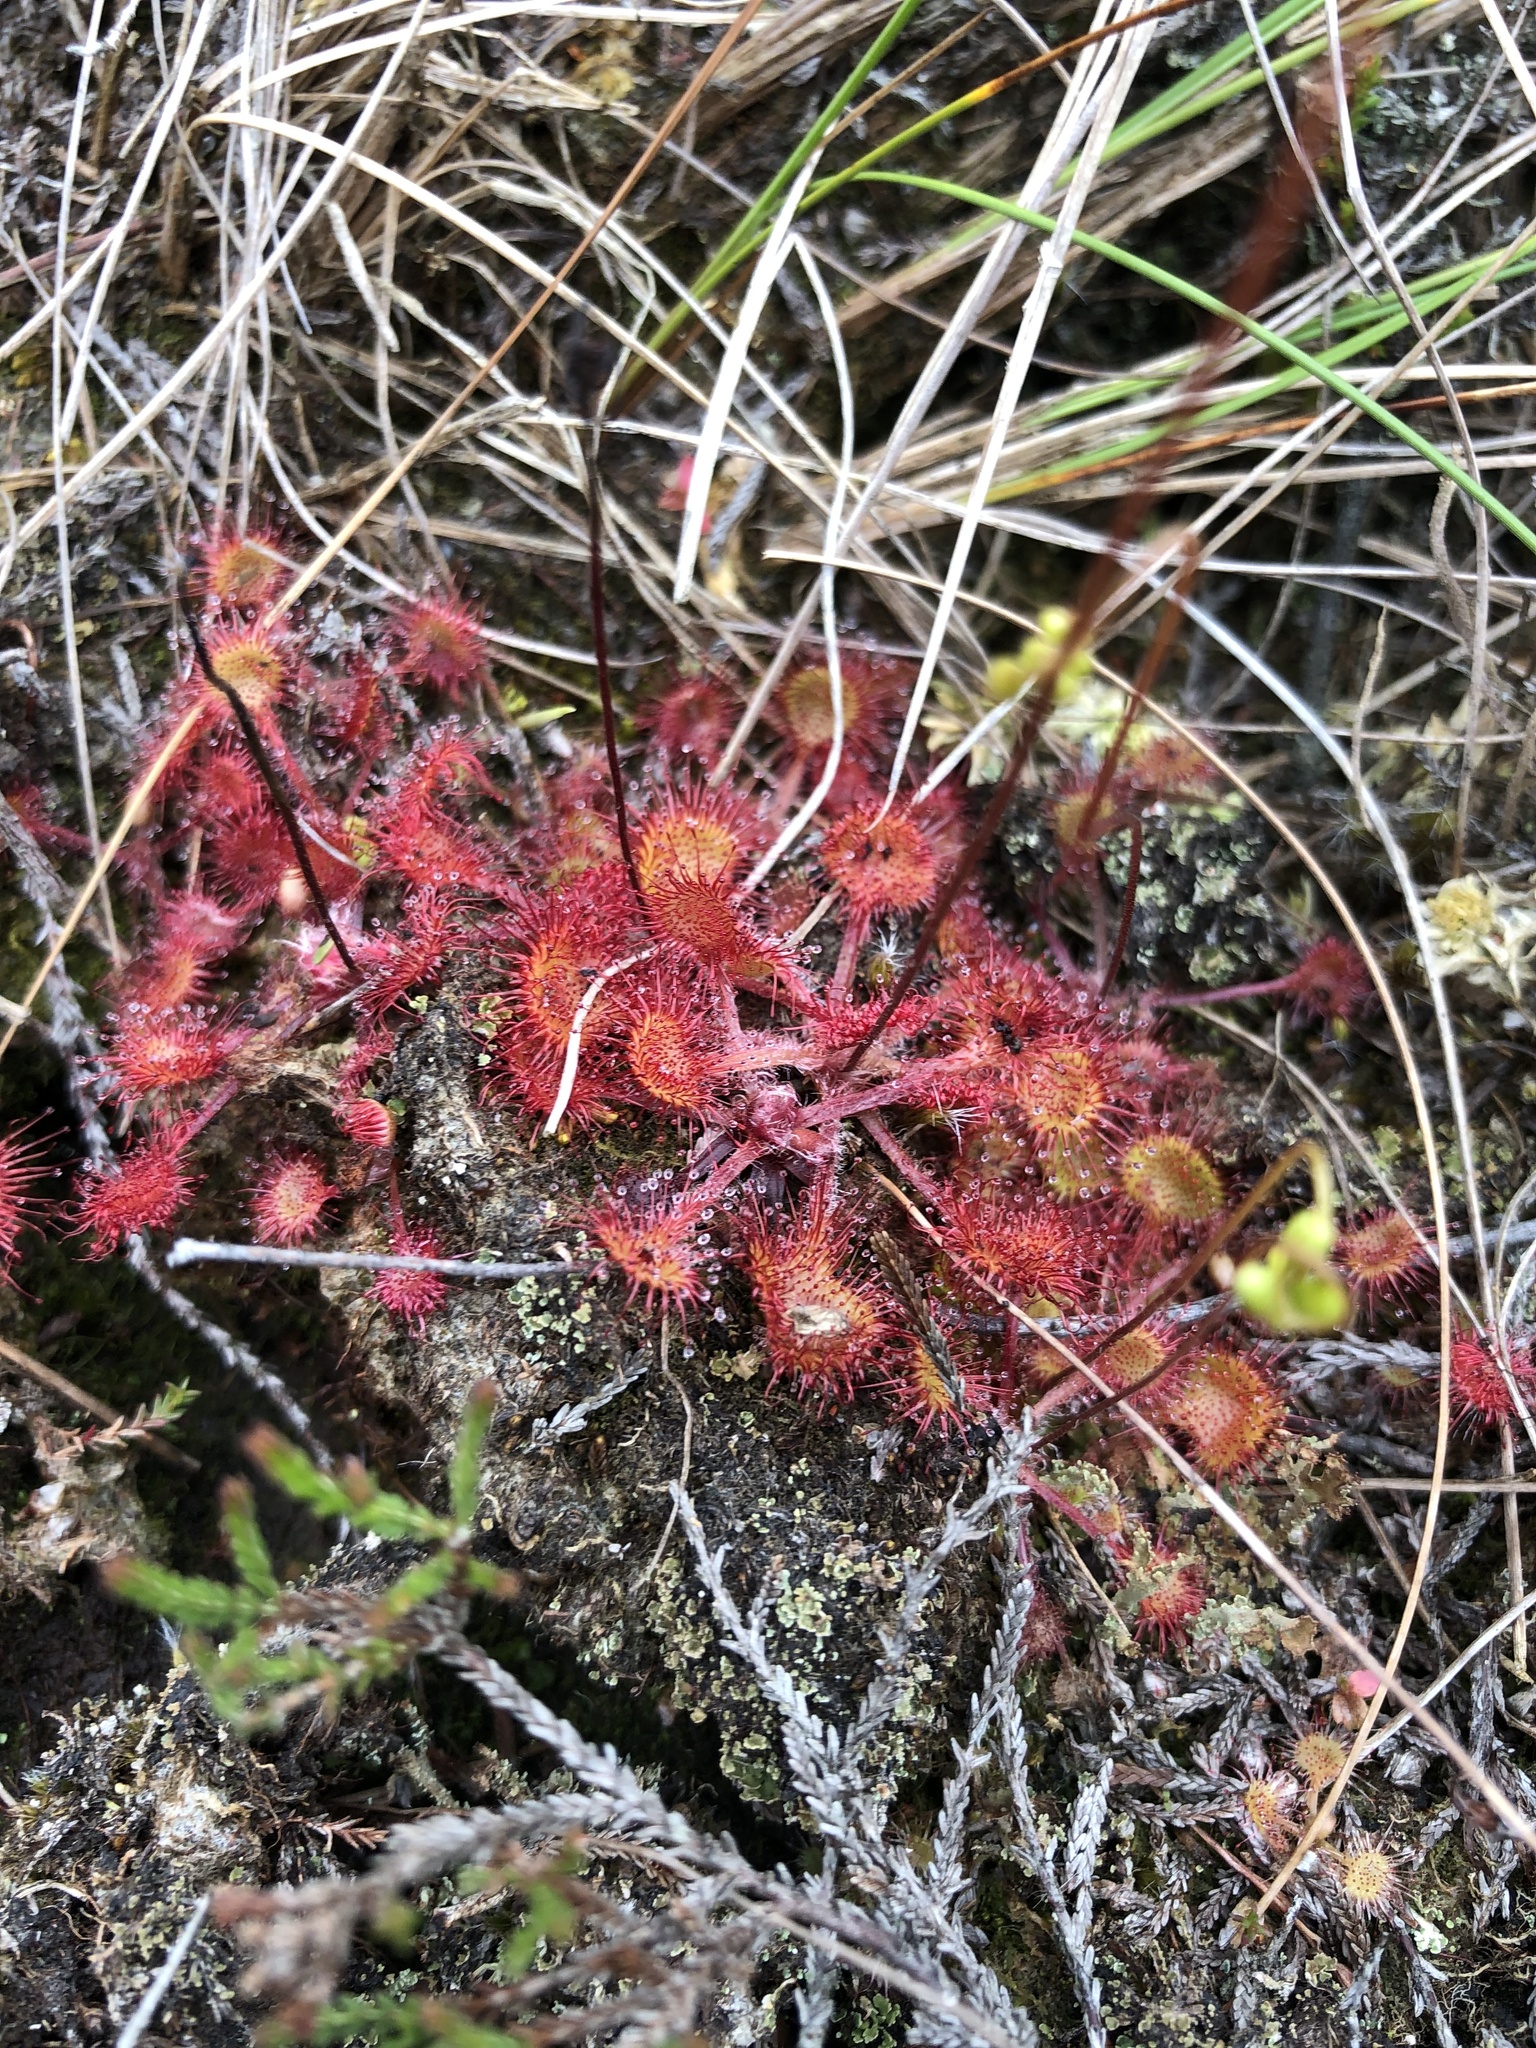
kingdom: Plantae
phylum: Tracheophyta
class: Magnoliopsida
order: Caryophyllales
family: Droseraceae
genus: Drosera
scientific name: Drosera rotundifolia
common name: Round-leaved sundew
